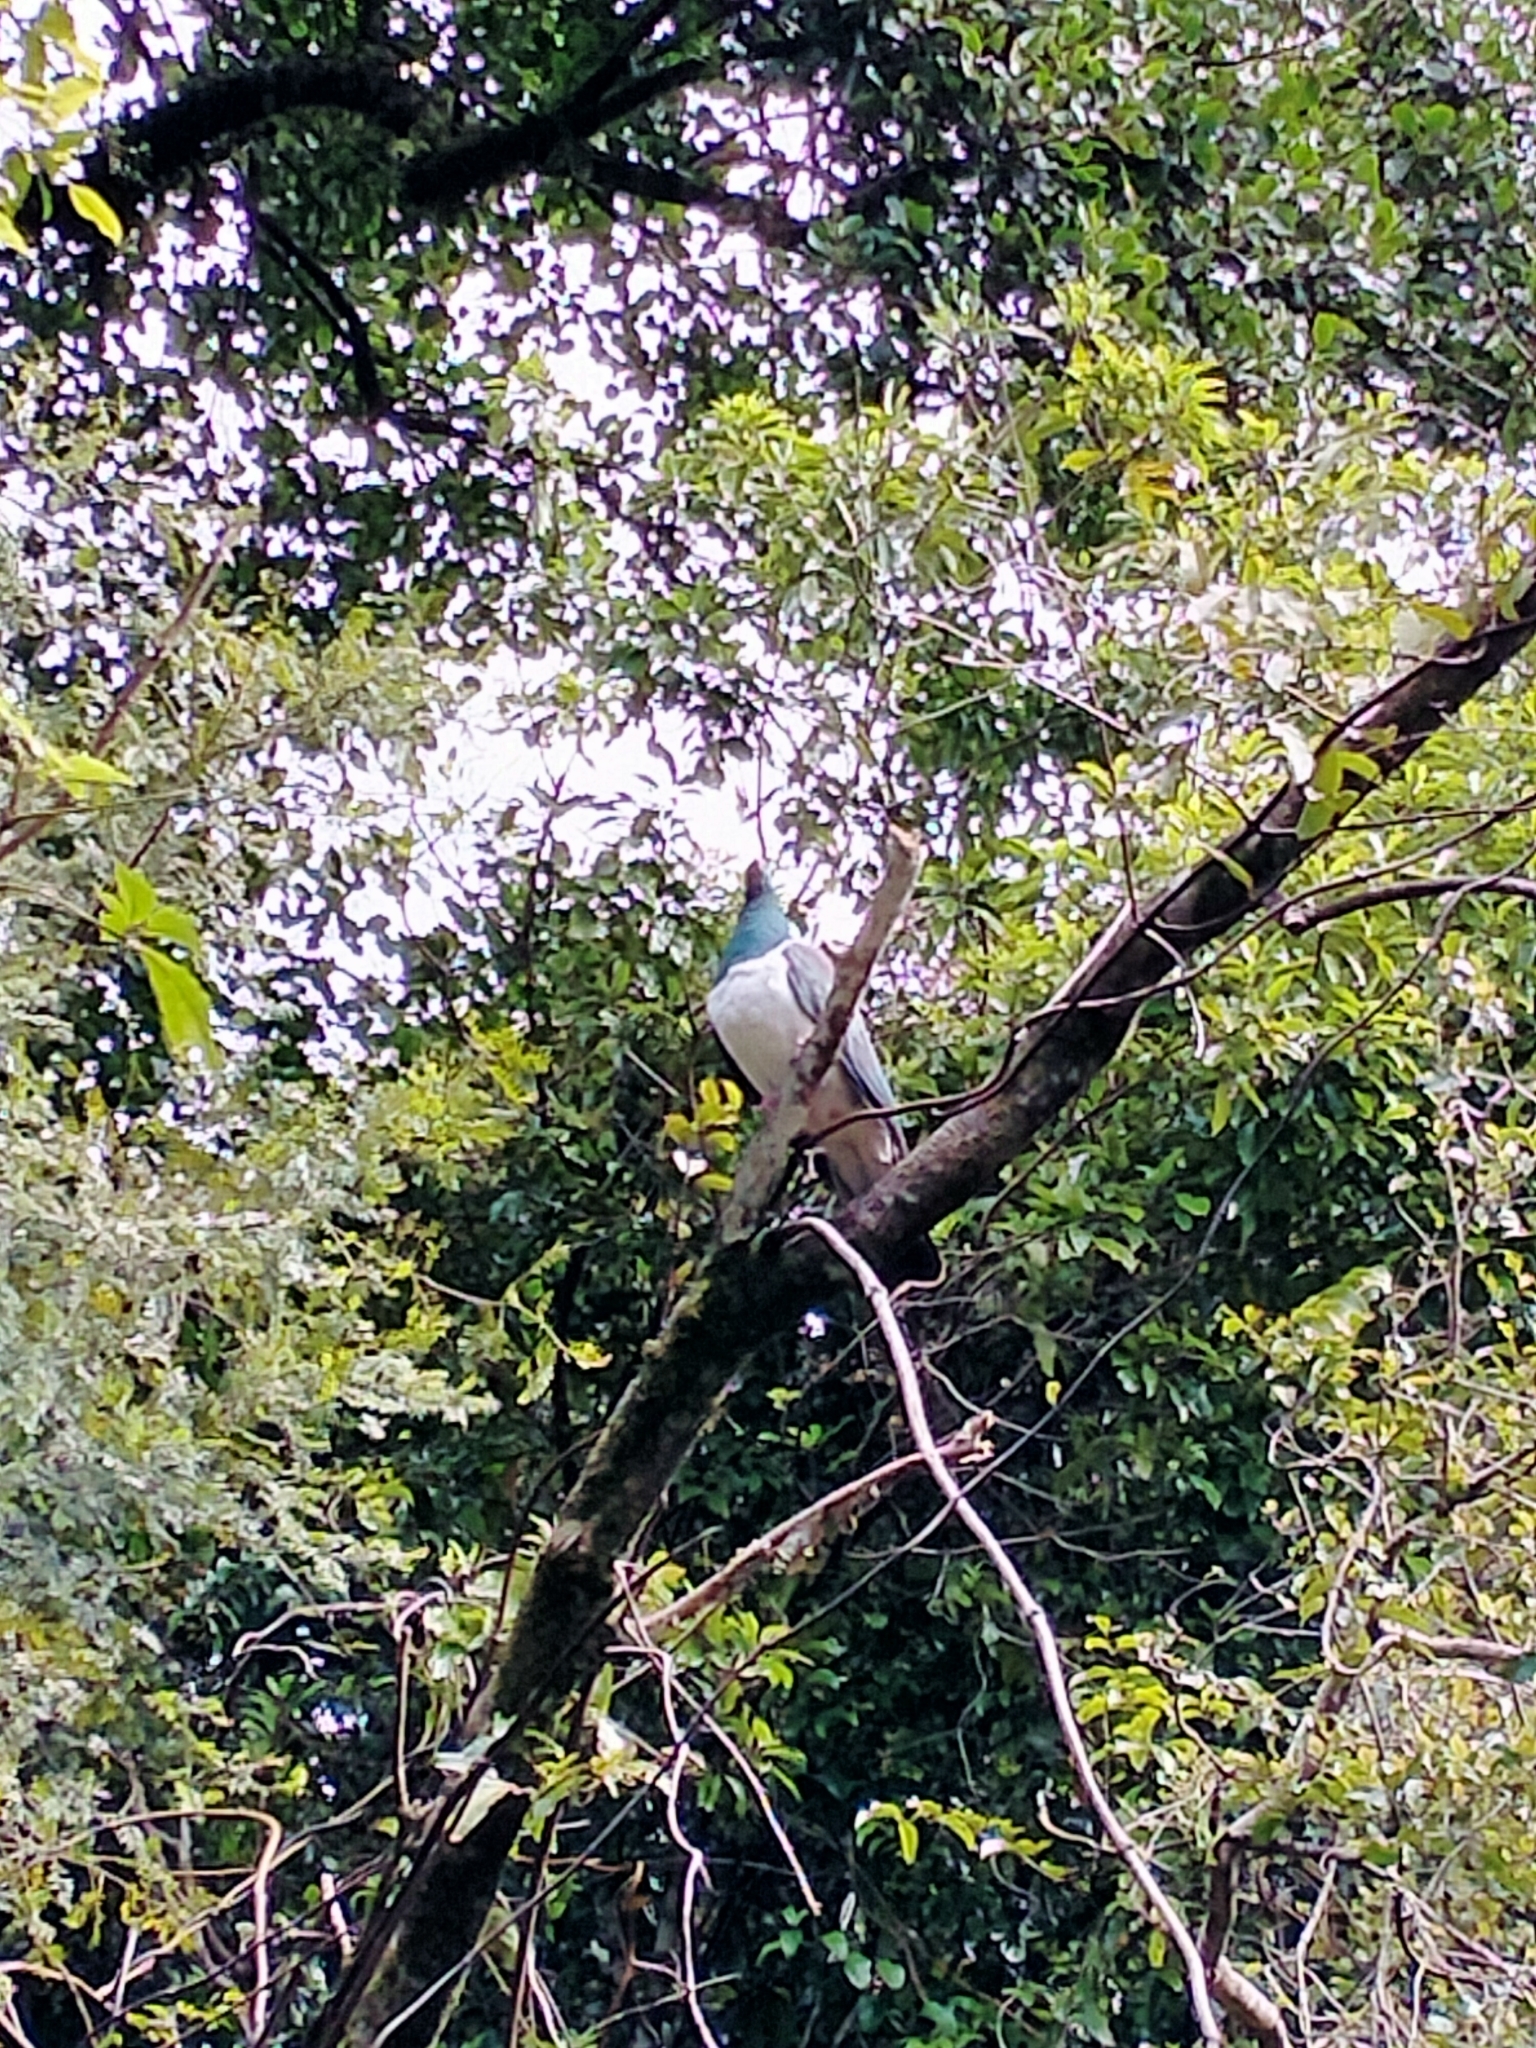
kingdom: Animalia
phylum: Chordata
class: Aves
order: Columbiformes
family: Columbidae
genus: Hemiphaga
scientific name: Hemiphaga novaeseelandiae
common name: New zealand pigeon
